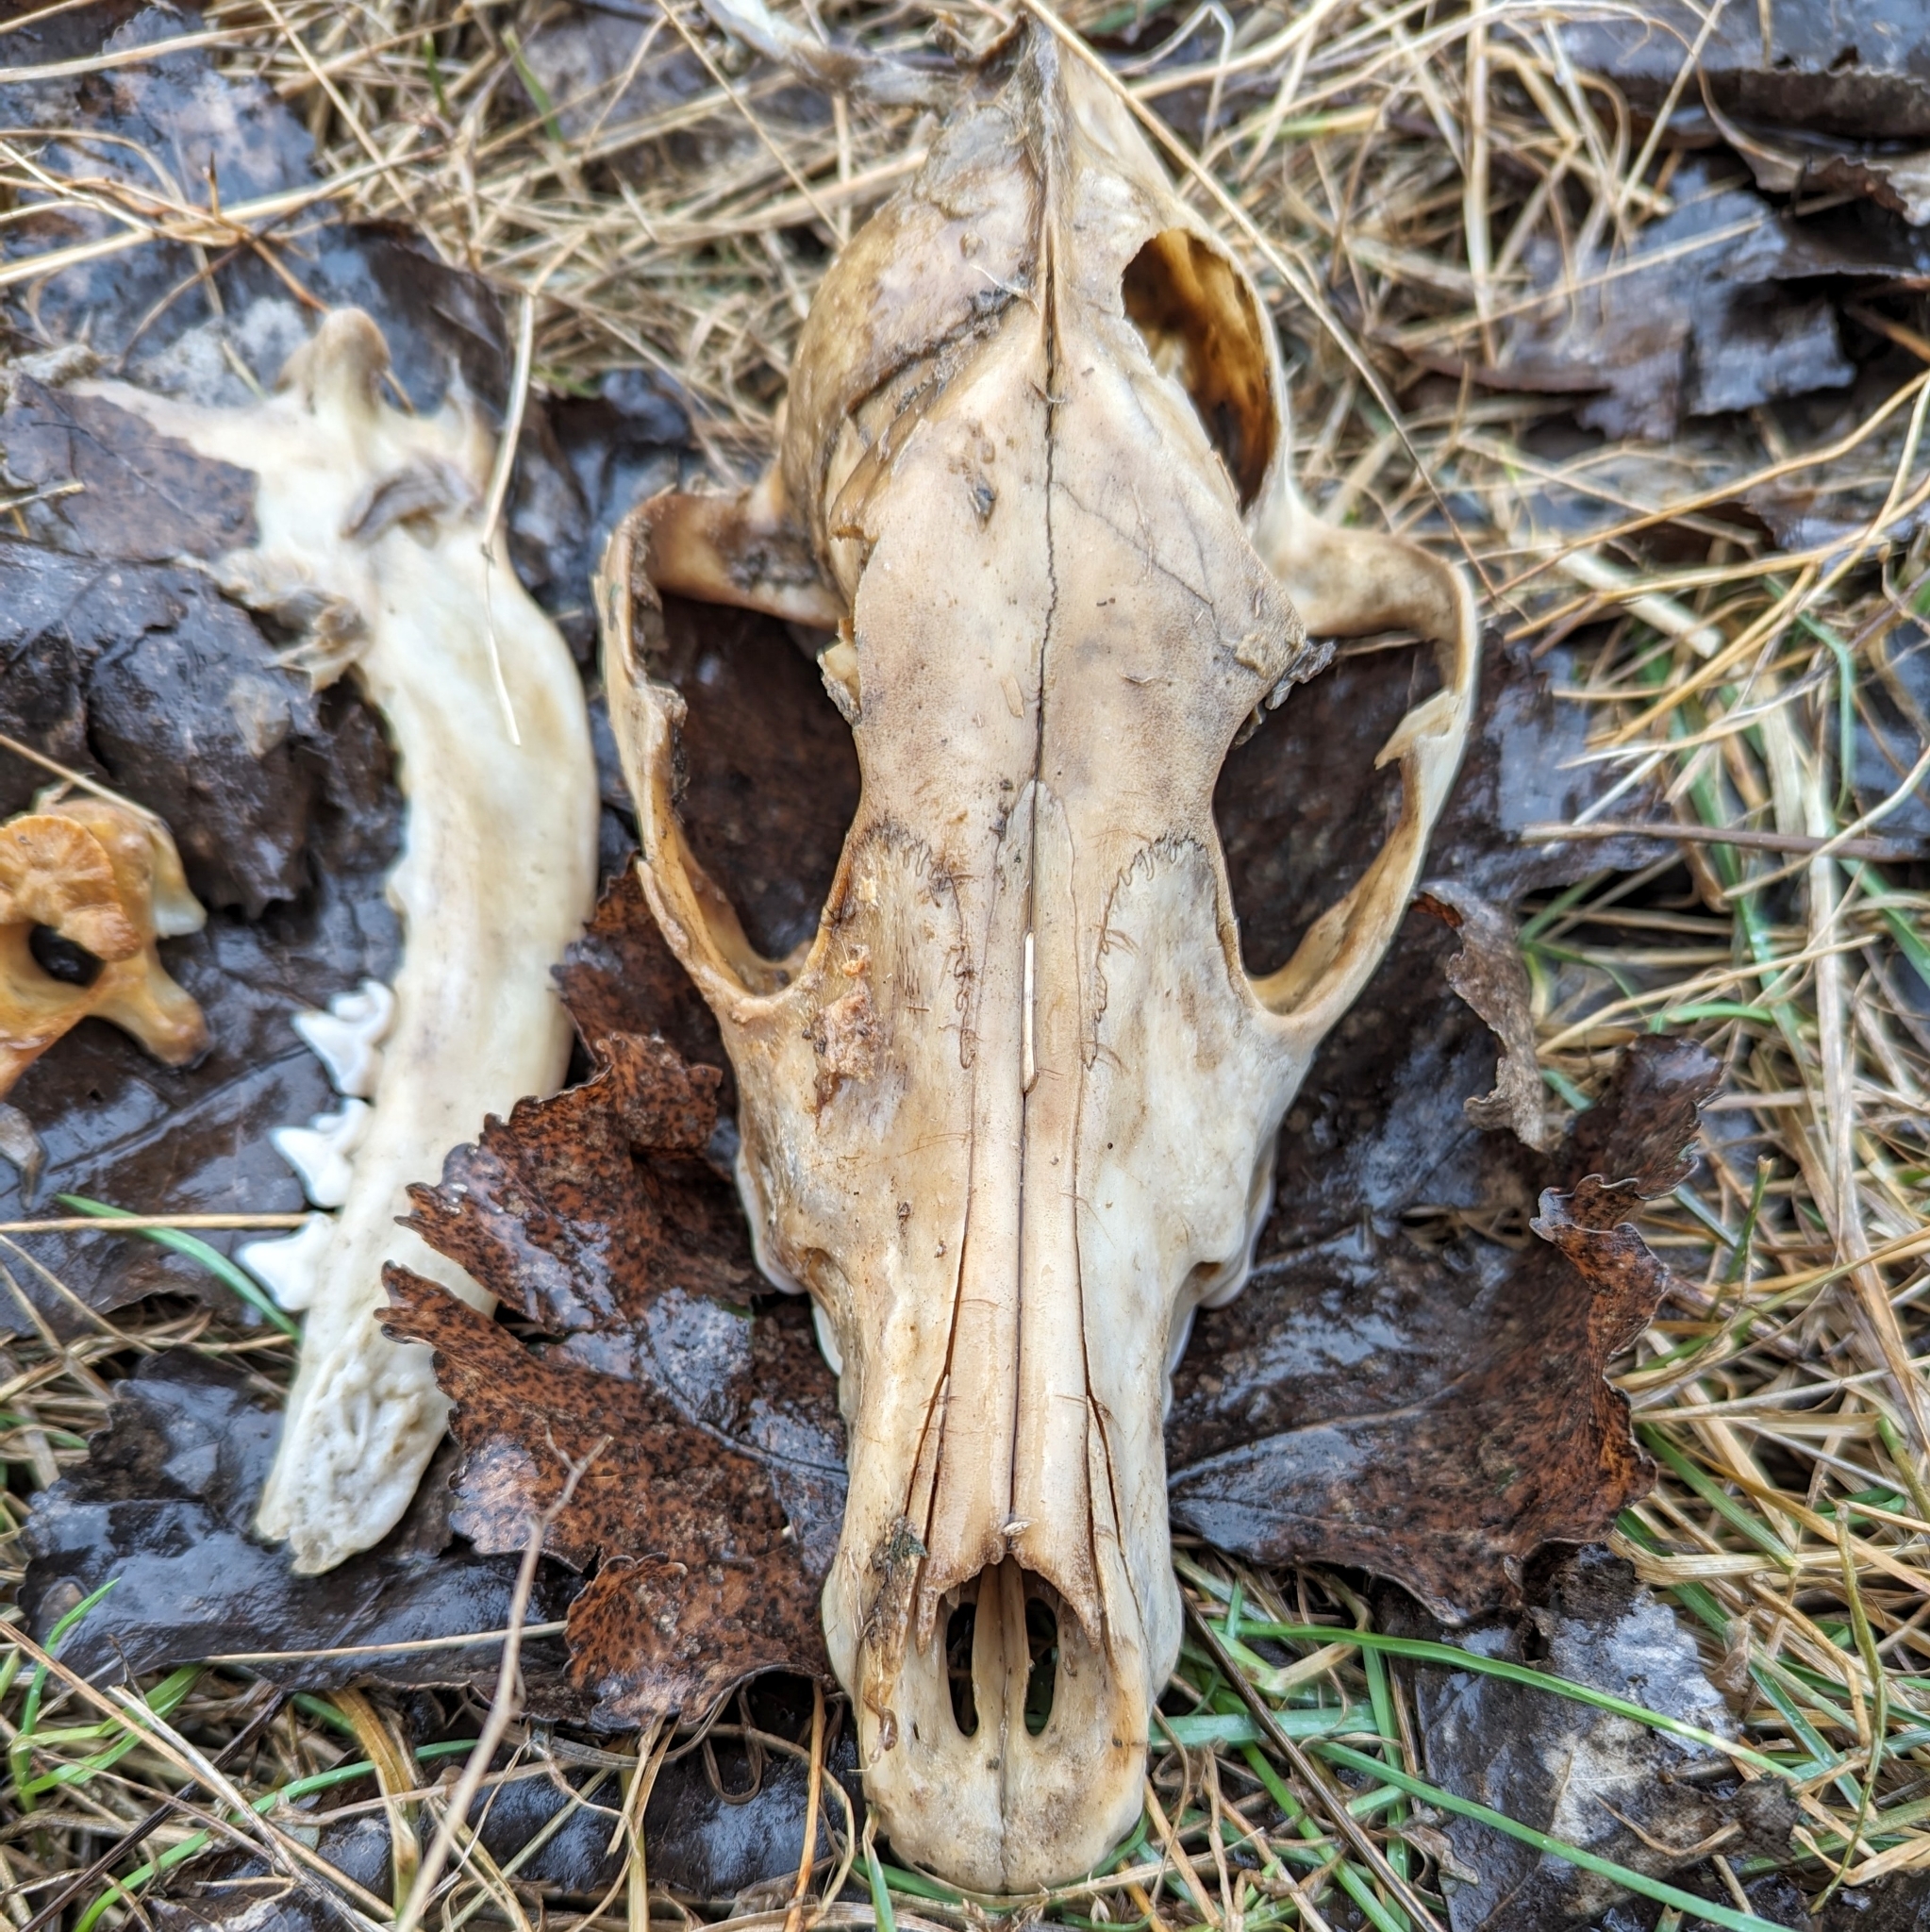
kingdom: Animalia
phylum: Chordata
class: Mammalia
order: Carnivora
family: Canidae
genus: Canis
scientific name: Canis lupus
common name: Gray wolf
